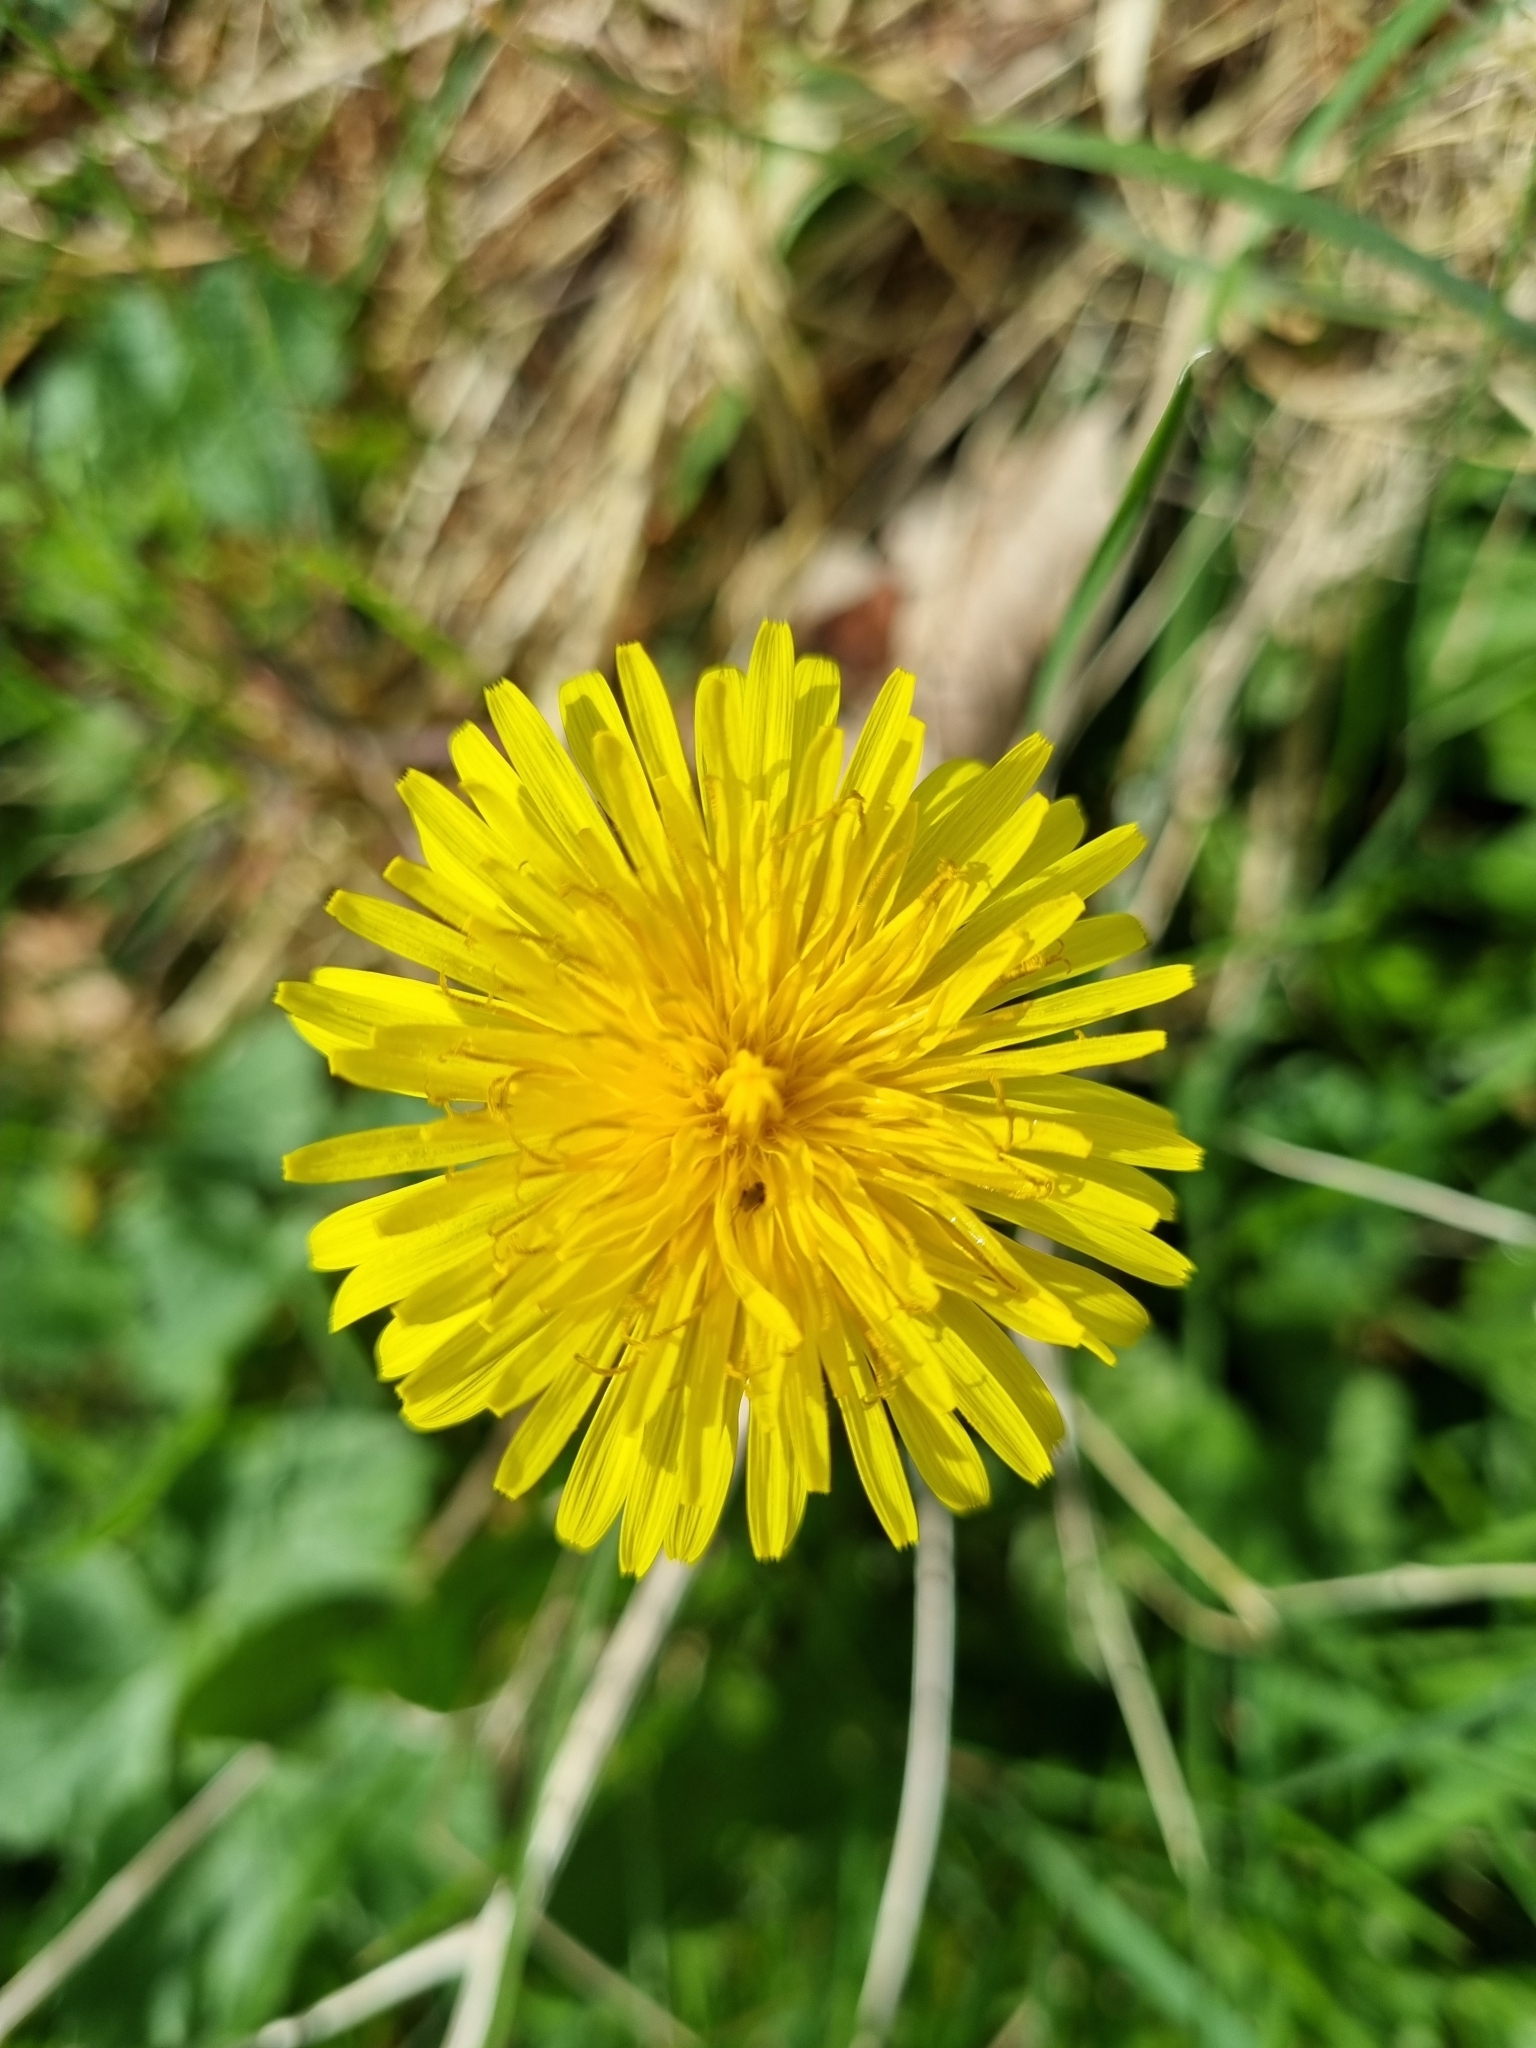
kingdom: Plantae
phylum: Tracheophyta
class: Magnoliopsida
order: Asterales
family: Asteraceae
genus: Taraxacum
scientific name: Taraxacum officinale
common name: Common dandelion
